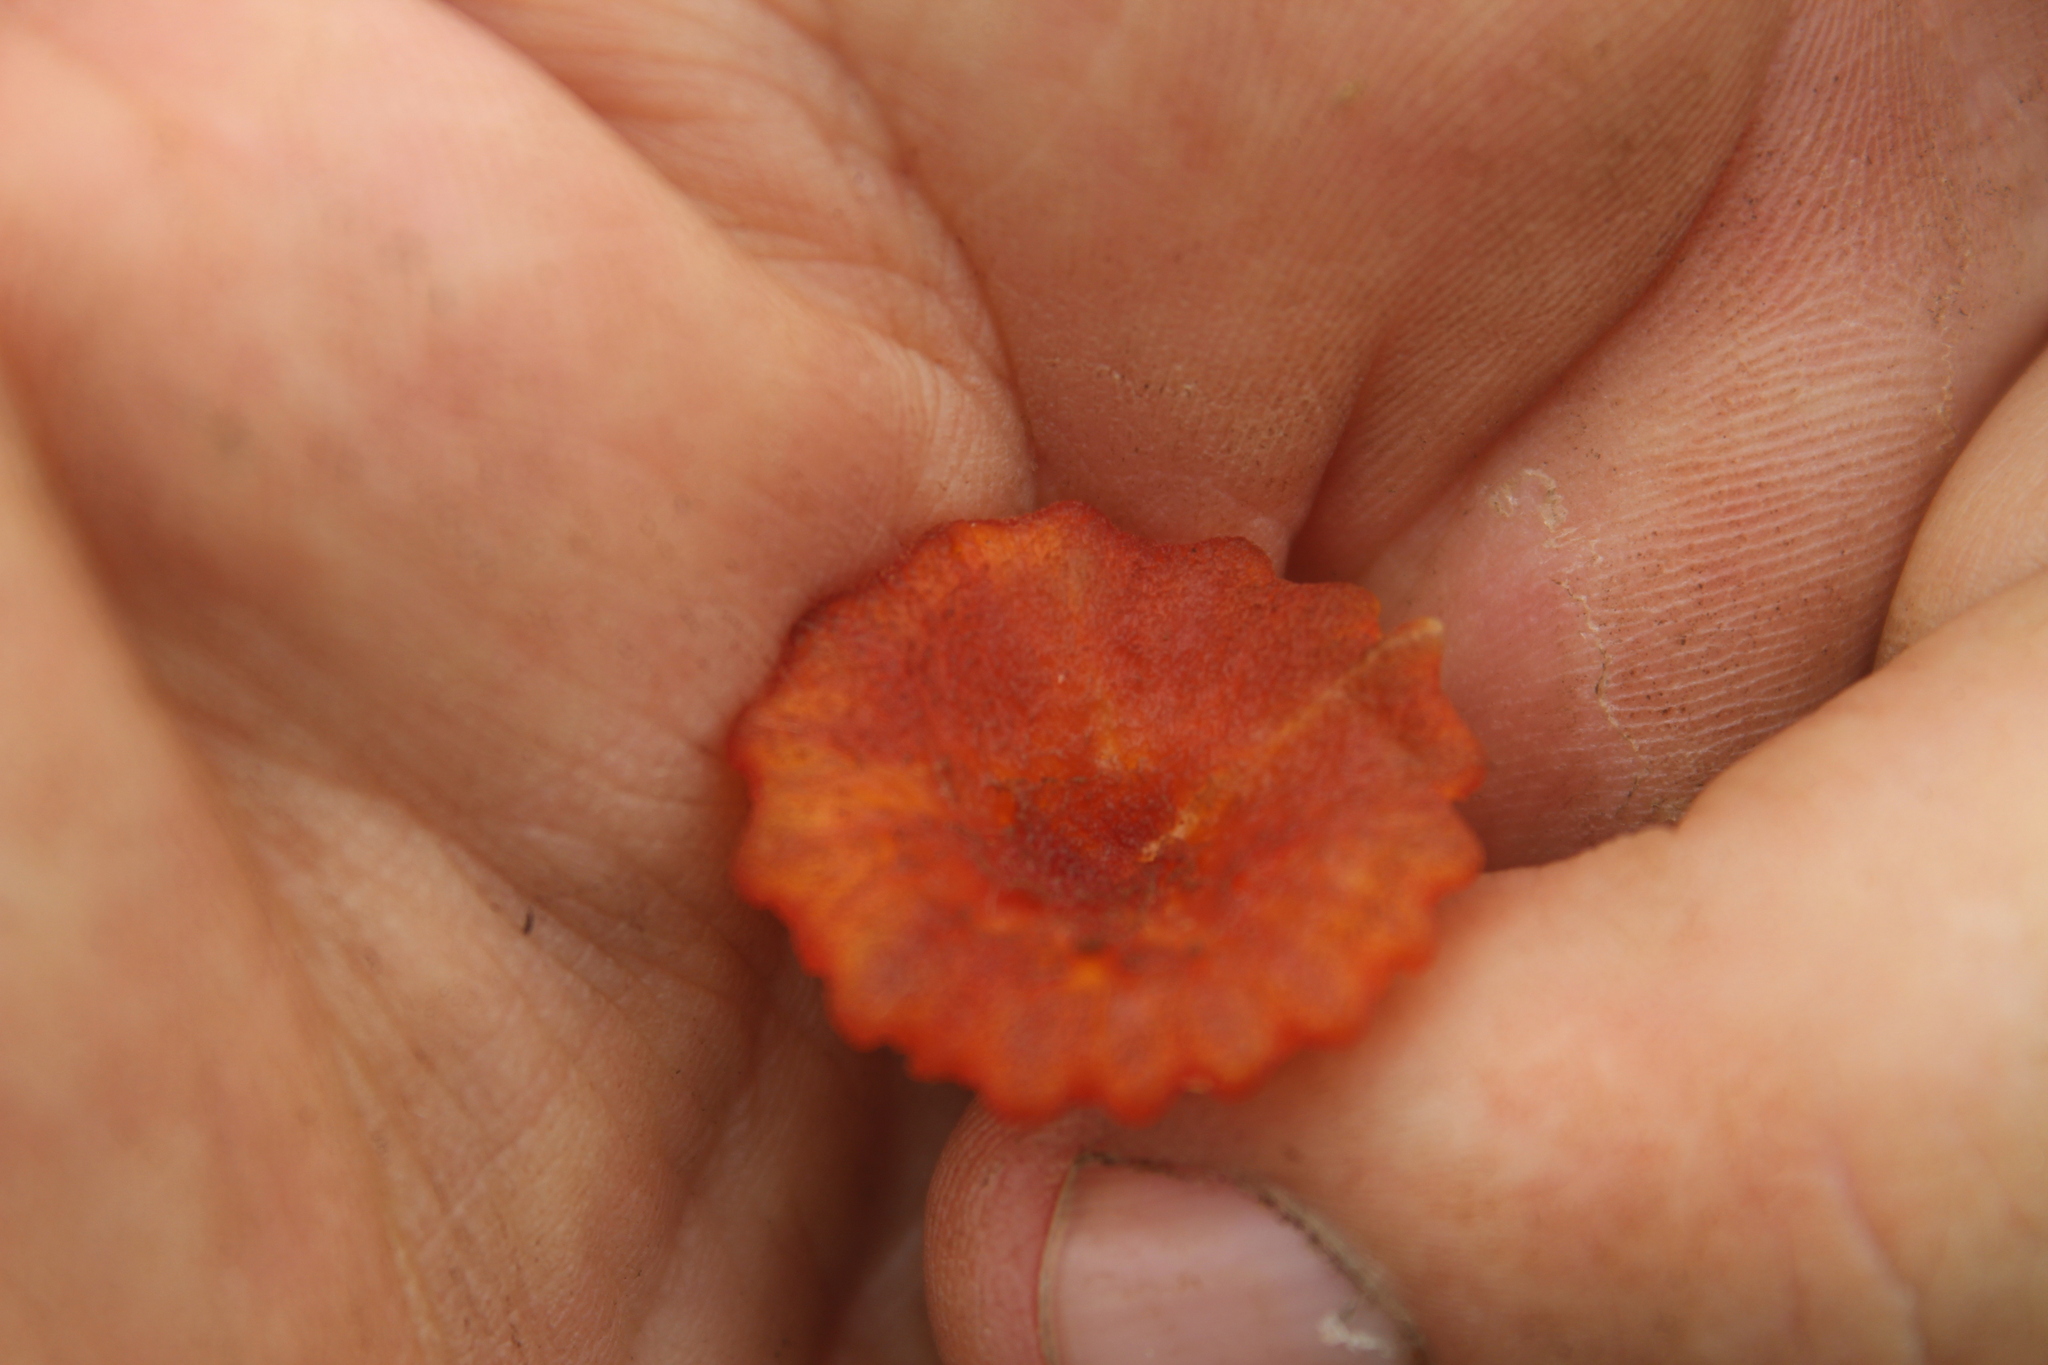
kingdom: Fungi
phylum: Basidiomycota
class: Agaricomycetes
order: Agaricales
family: Hygrophoraceae
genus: Hygrocybe
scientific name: Hygrocybe coccineocrenata
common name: Bog waxcap
